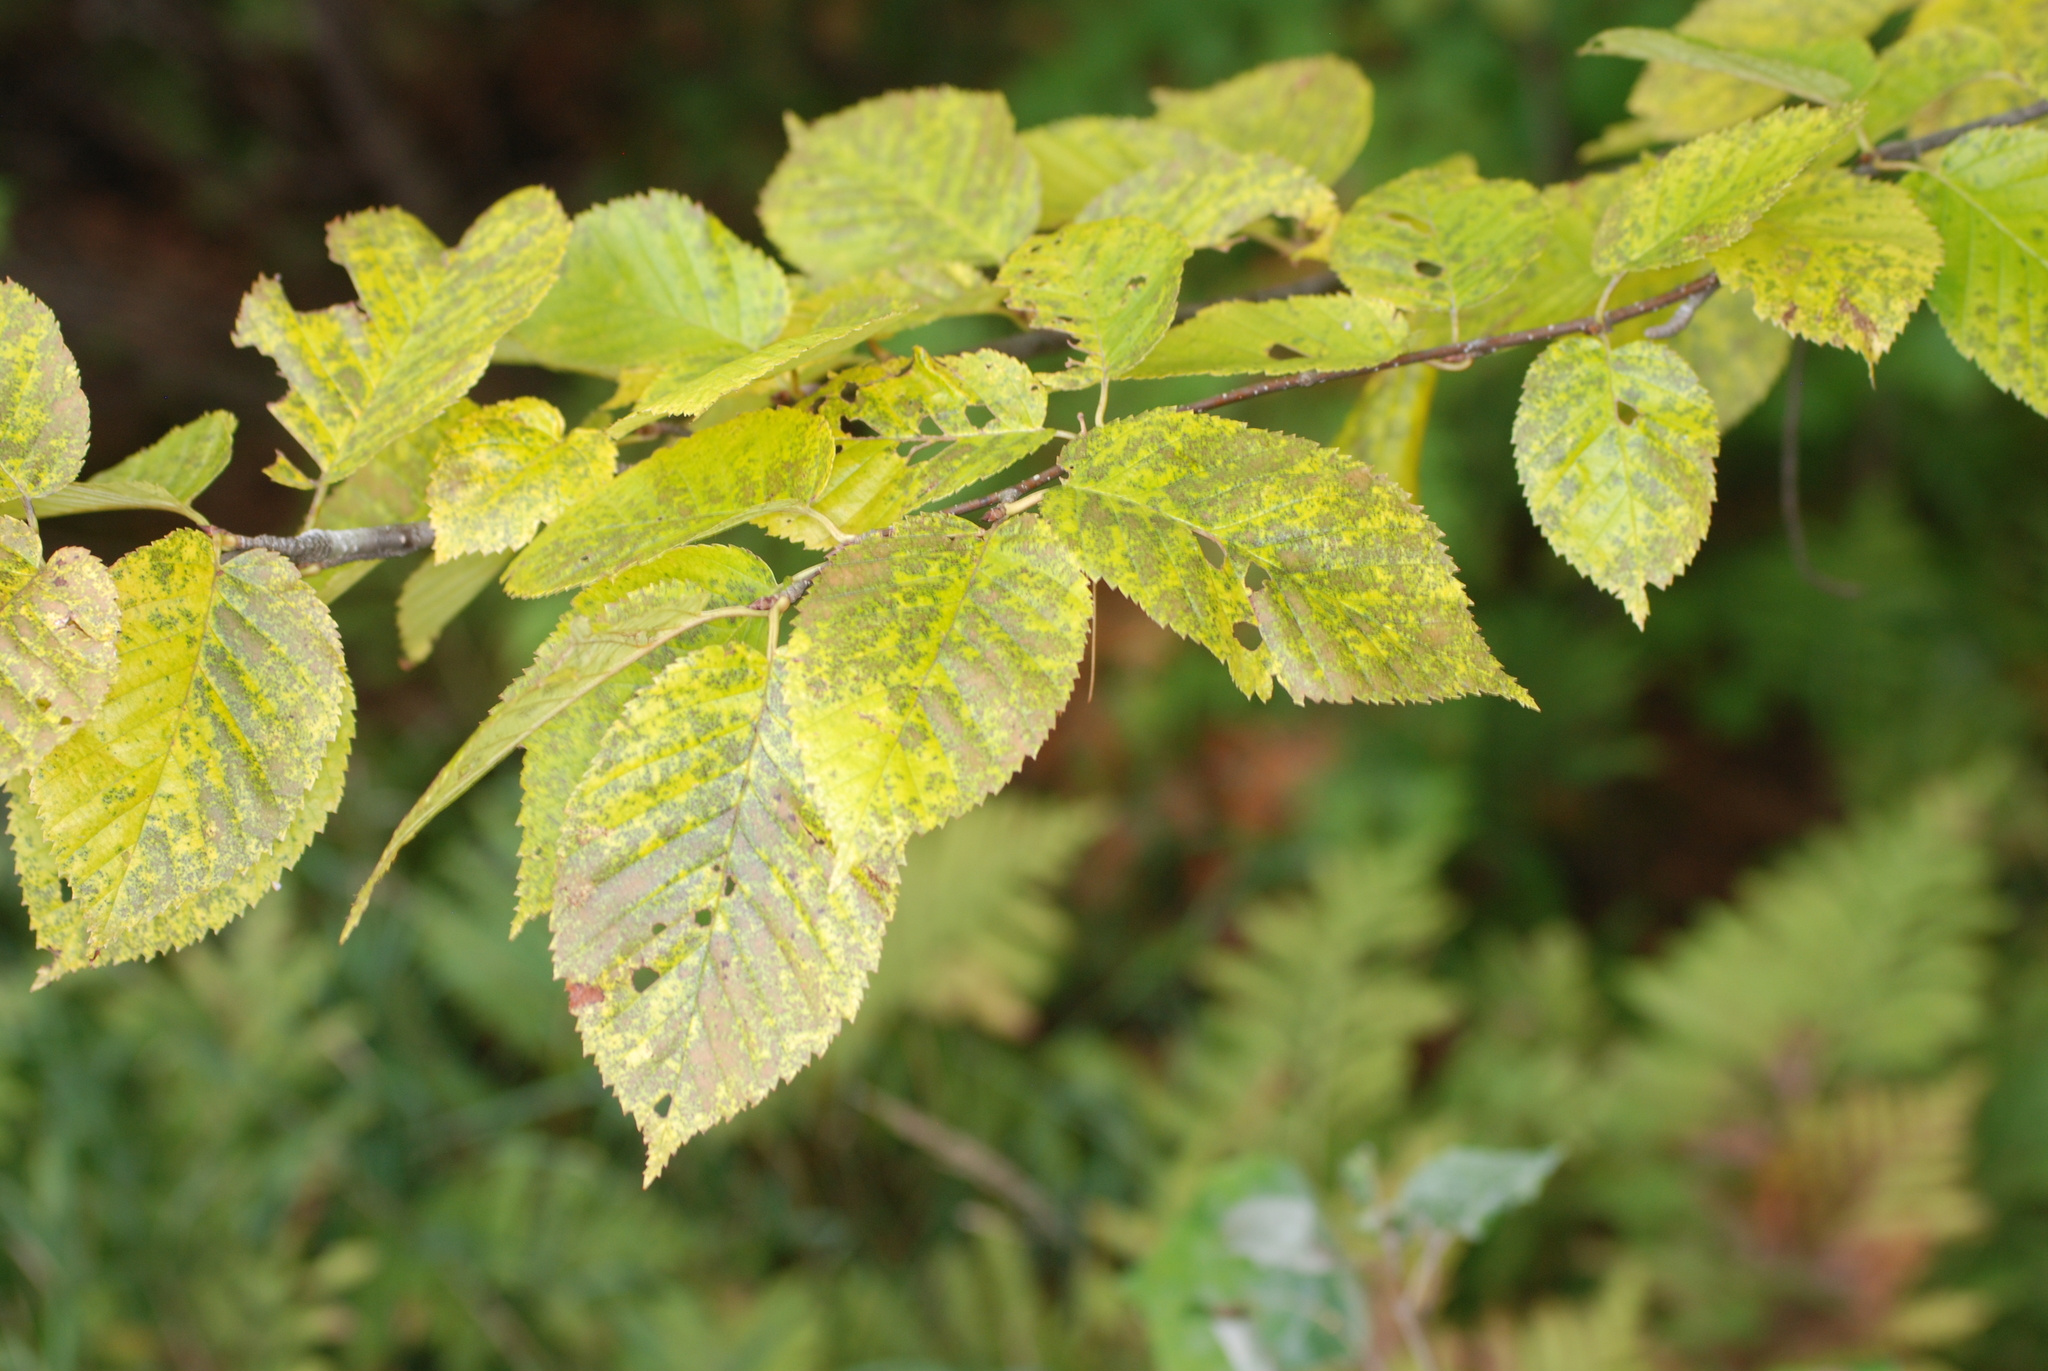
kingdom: Plantae
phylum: Tracheophyta
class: Magnoliopsida
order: Fagales
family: Betulaceae
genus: Betula
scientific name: Betula alleghaniensis
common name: Yellow birch
